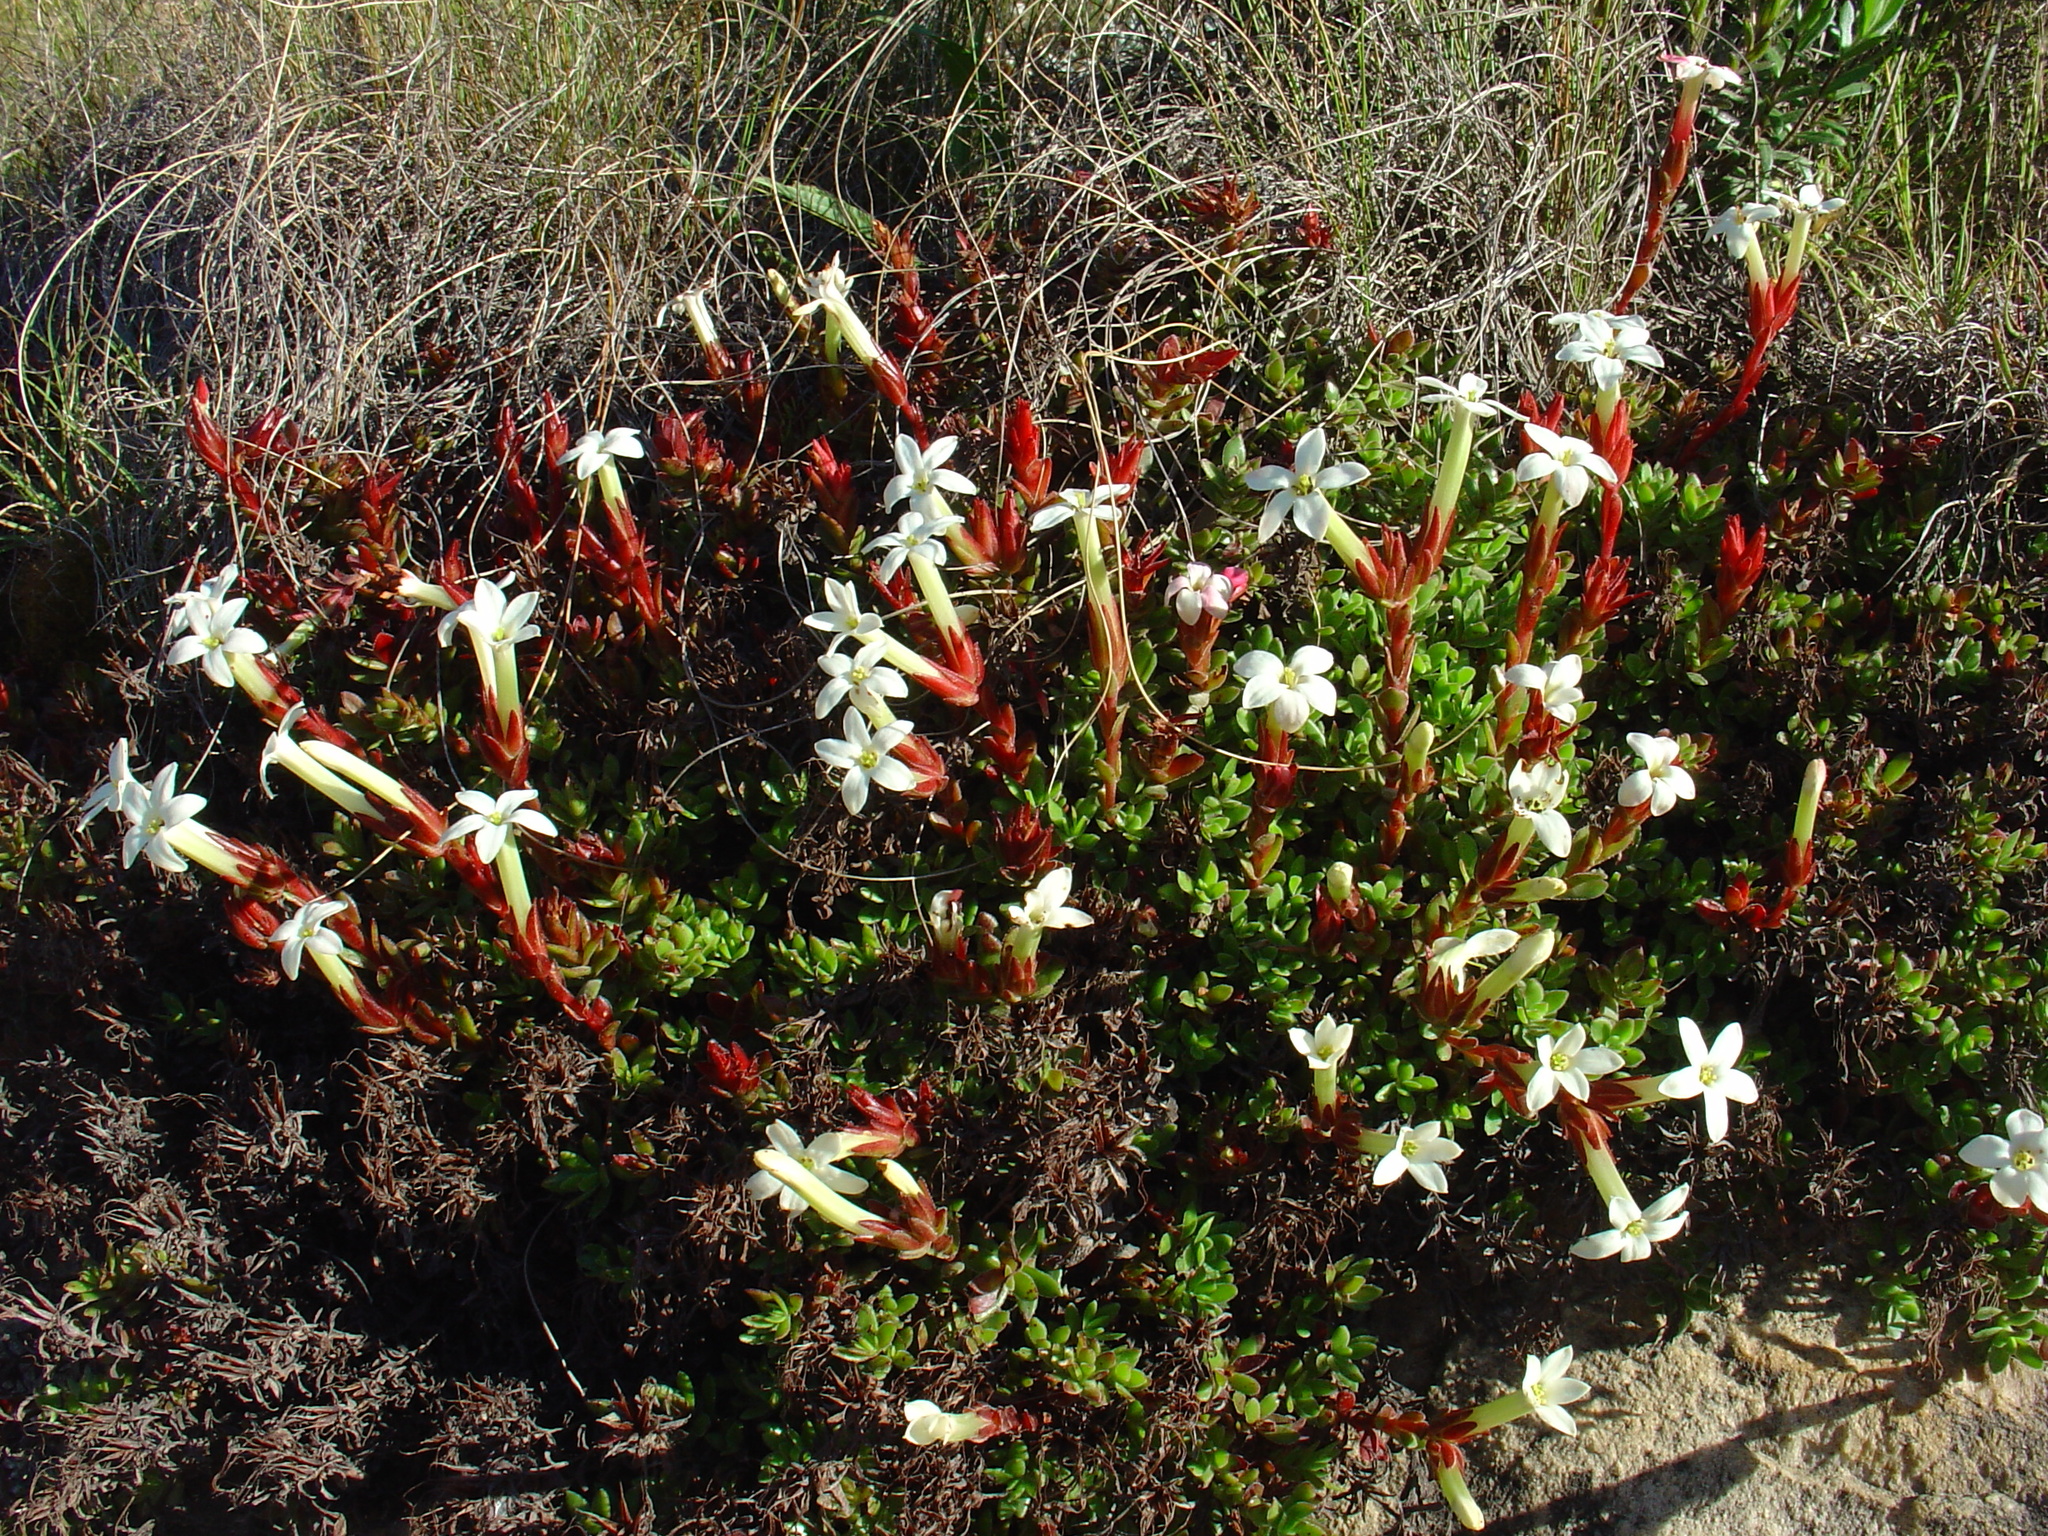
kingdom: Plantae
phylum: Tracheophyta
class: Magnoliopsida
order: Saxifragales
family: Crassulaceae
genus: Crassula
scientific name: Crassula obtusa
